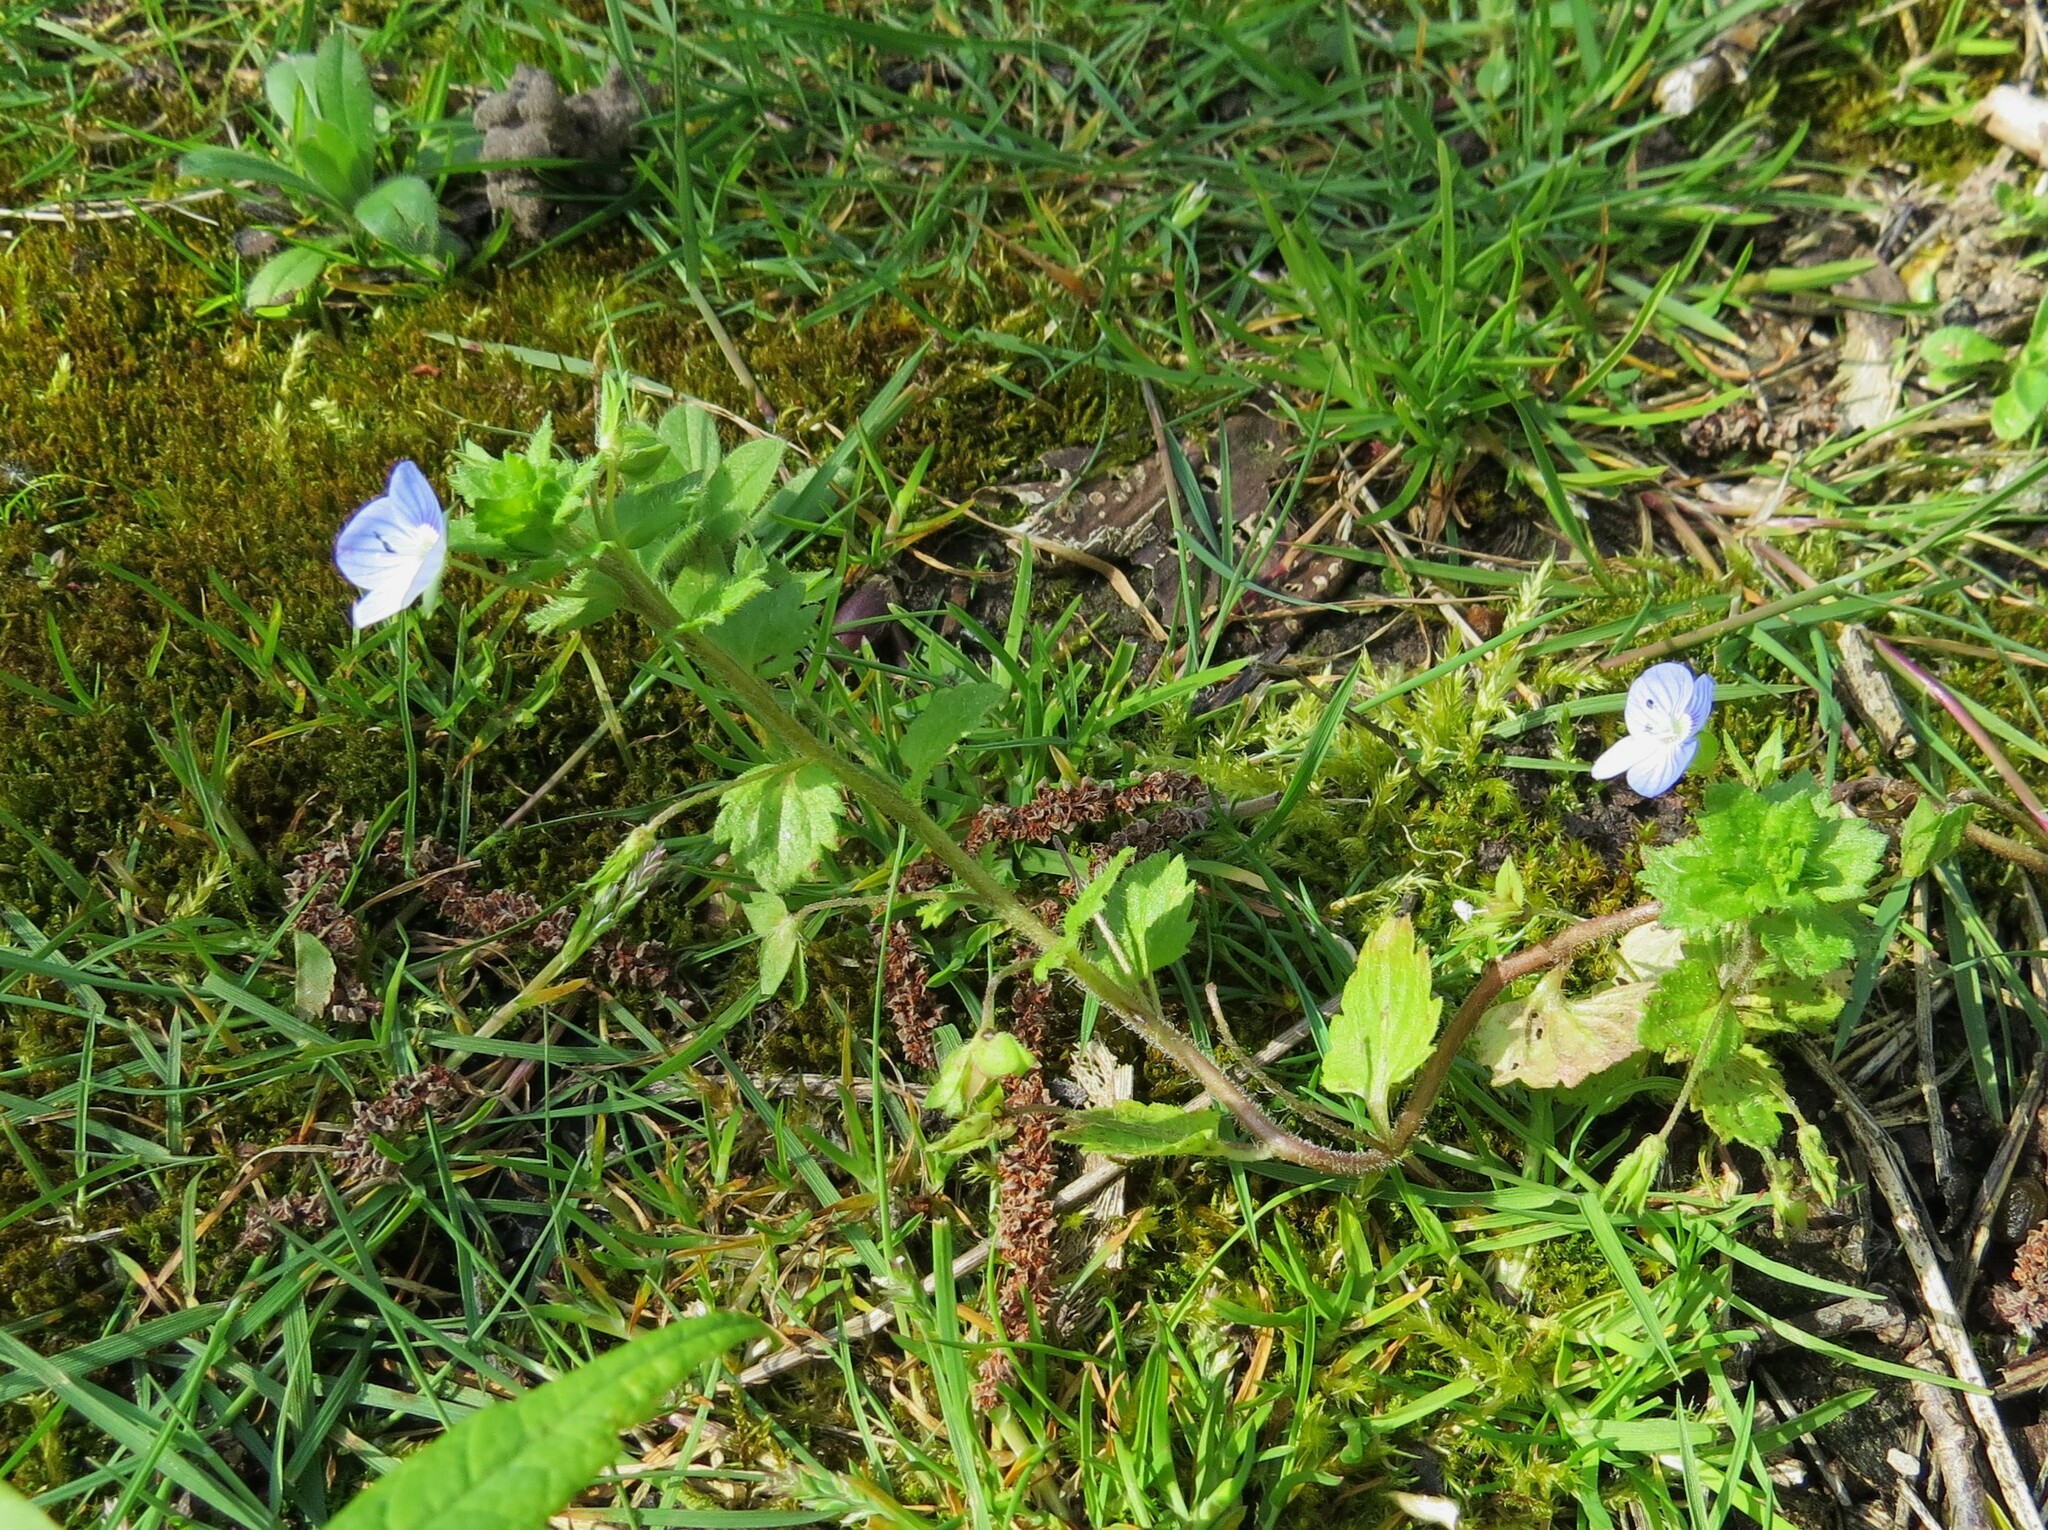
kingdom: Plantae
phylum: Tracheophyta
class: Magnoliopsida
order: Lamiales
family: Plantaginaceae
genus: Veronica
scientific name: Veronica persica
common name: Common field-speedwell
